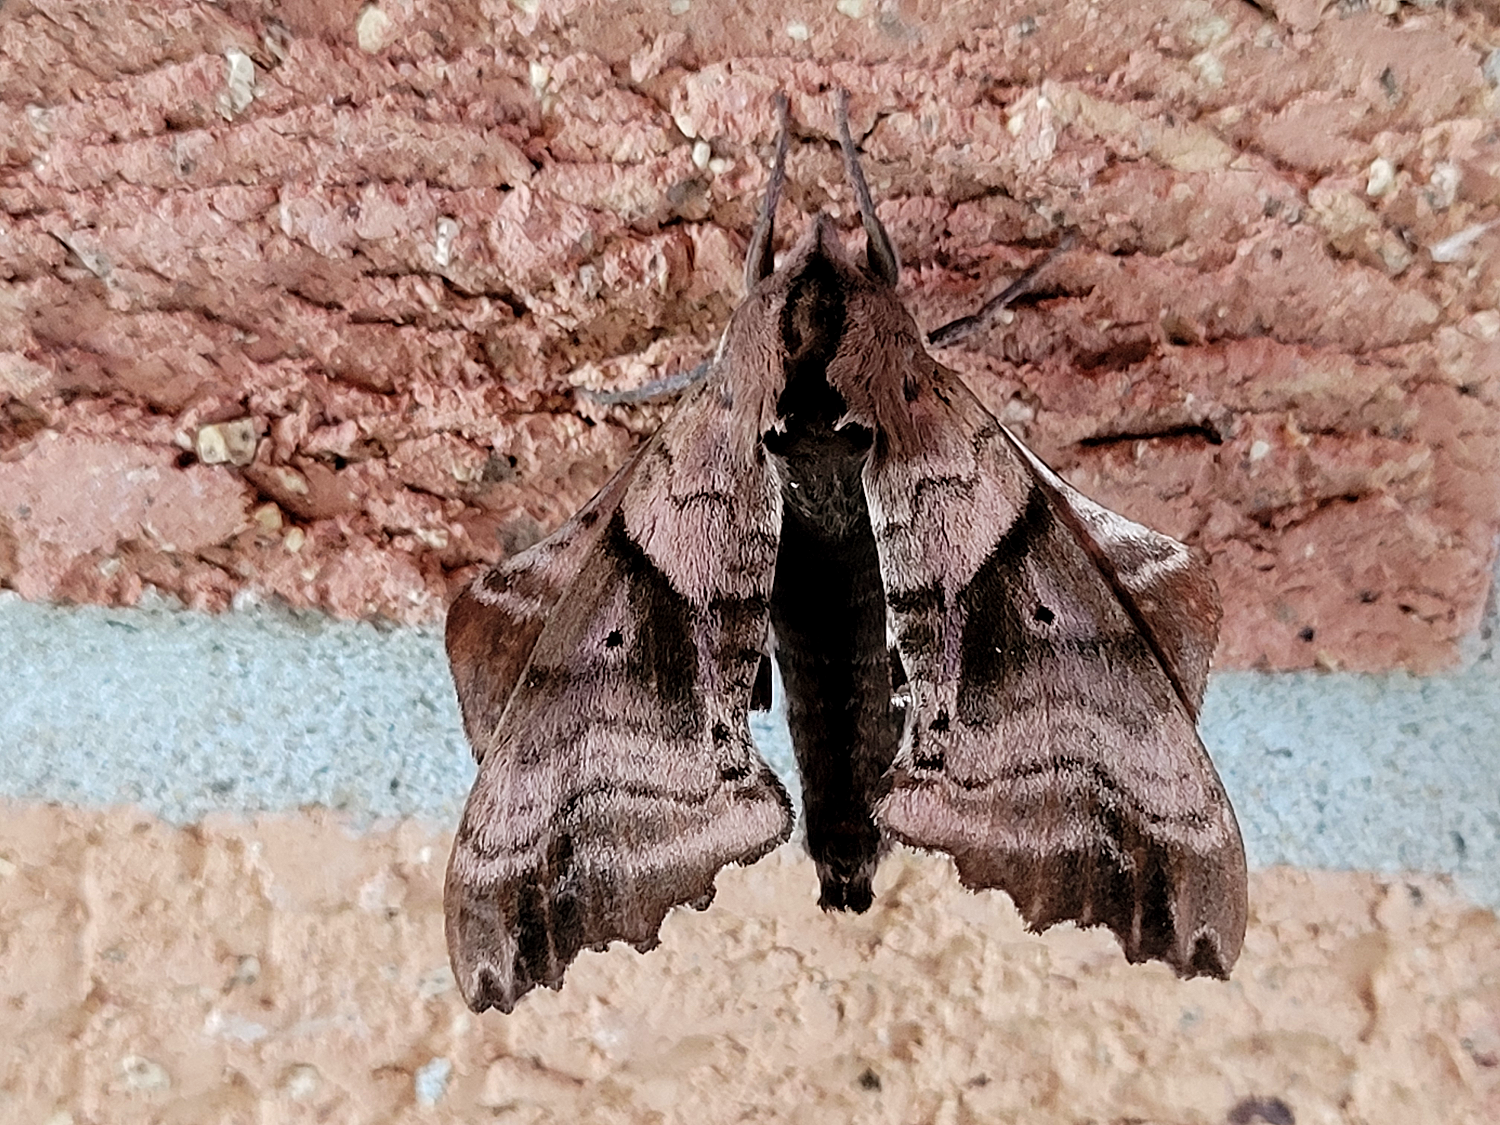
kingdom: Animalia
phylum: Arthropoda
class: Insecta
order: Lepidoptera
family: Sphingidae
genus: Paonias
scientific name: Paonias excaecata
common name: Blind-eyed sphinx
